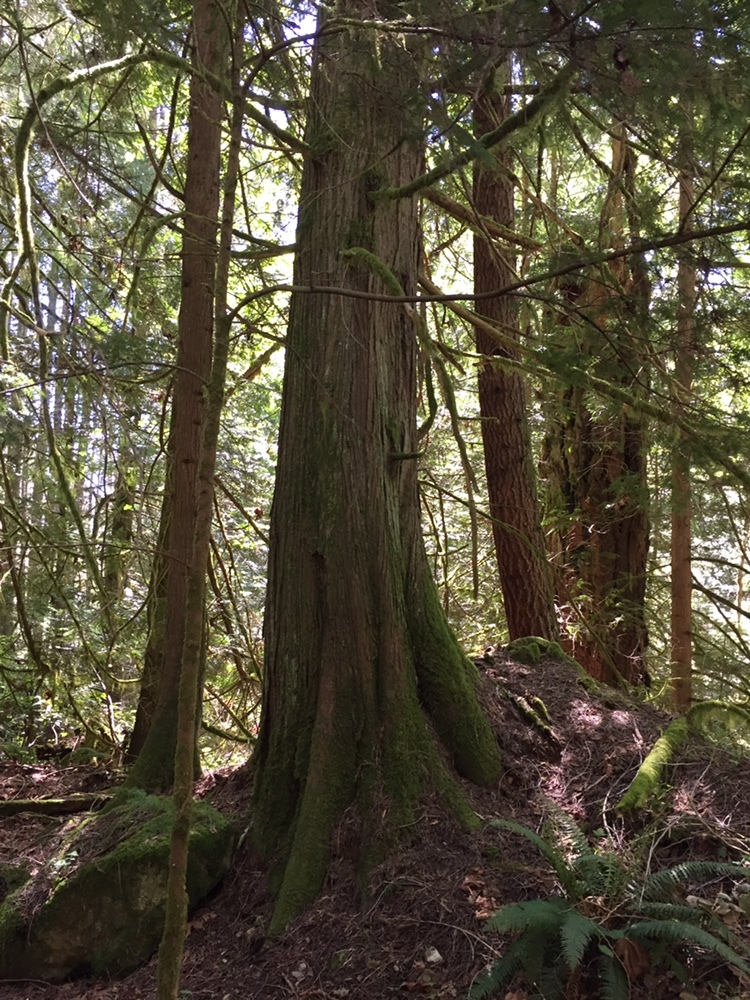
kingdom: Plantae
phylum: Tracheophyta
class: Pinopsida
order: Pinales
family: Cupressaceae
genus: Thuja
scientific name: Thuja plicata
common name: Western red-cedar
